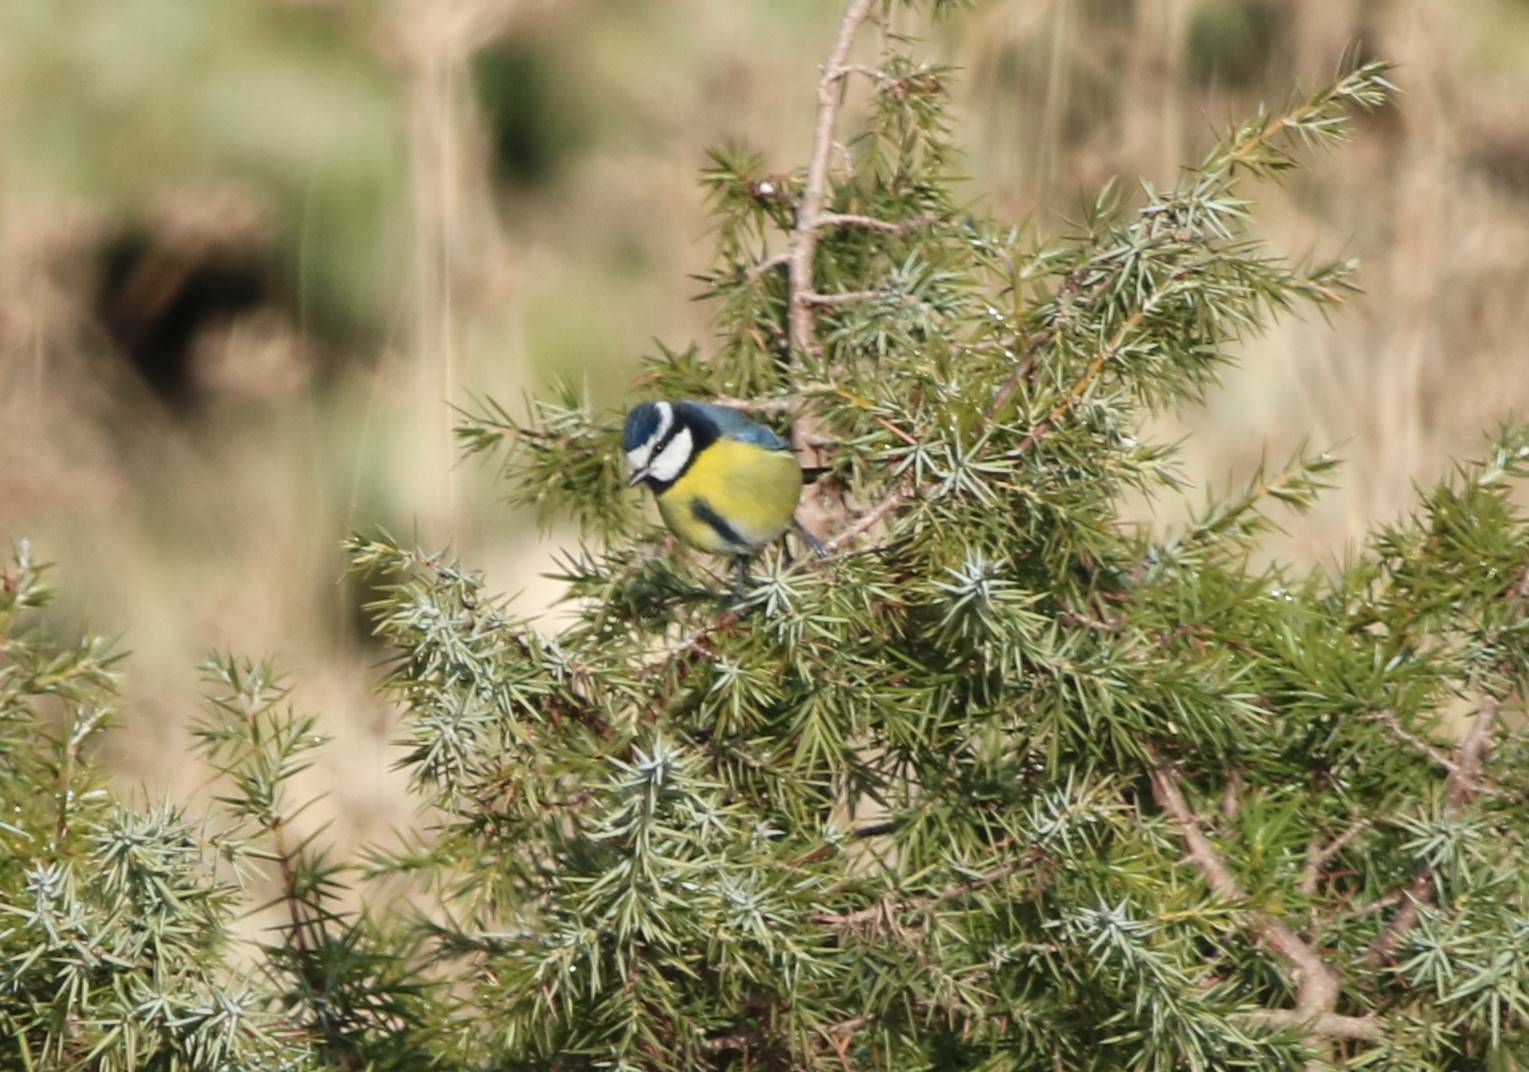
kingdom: Animalia
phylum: Chordata
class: Aves
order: Passeriformes
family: Paridae
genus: Cyanistes
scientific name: Cyanistes teneriffae
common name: African blue tit
